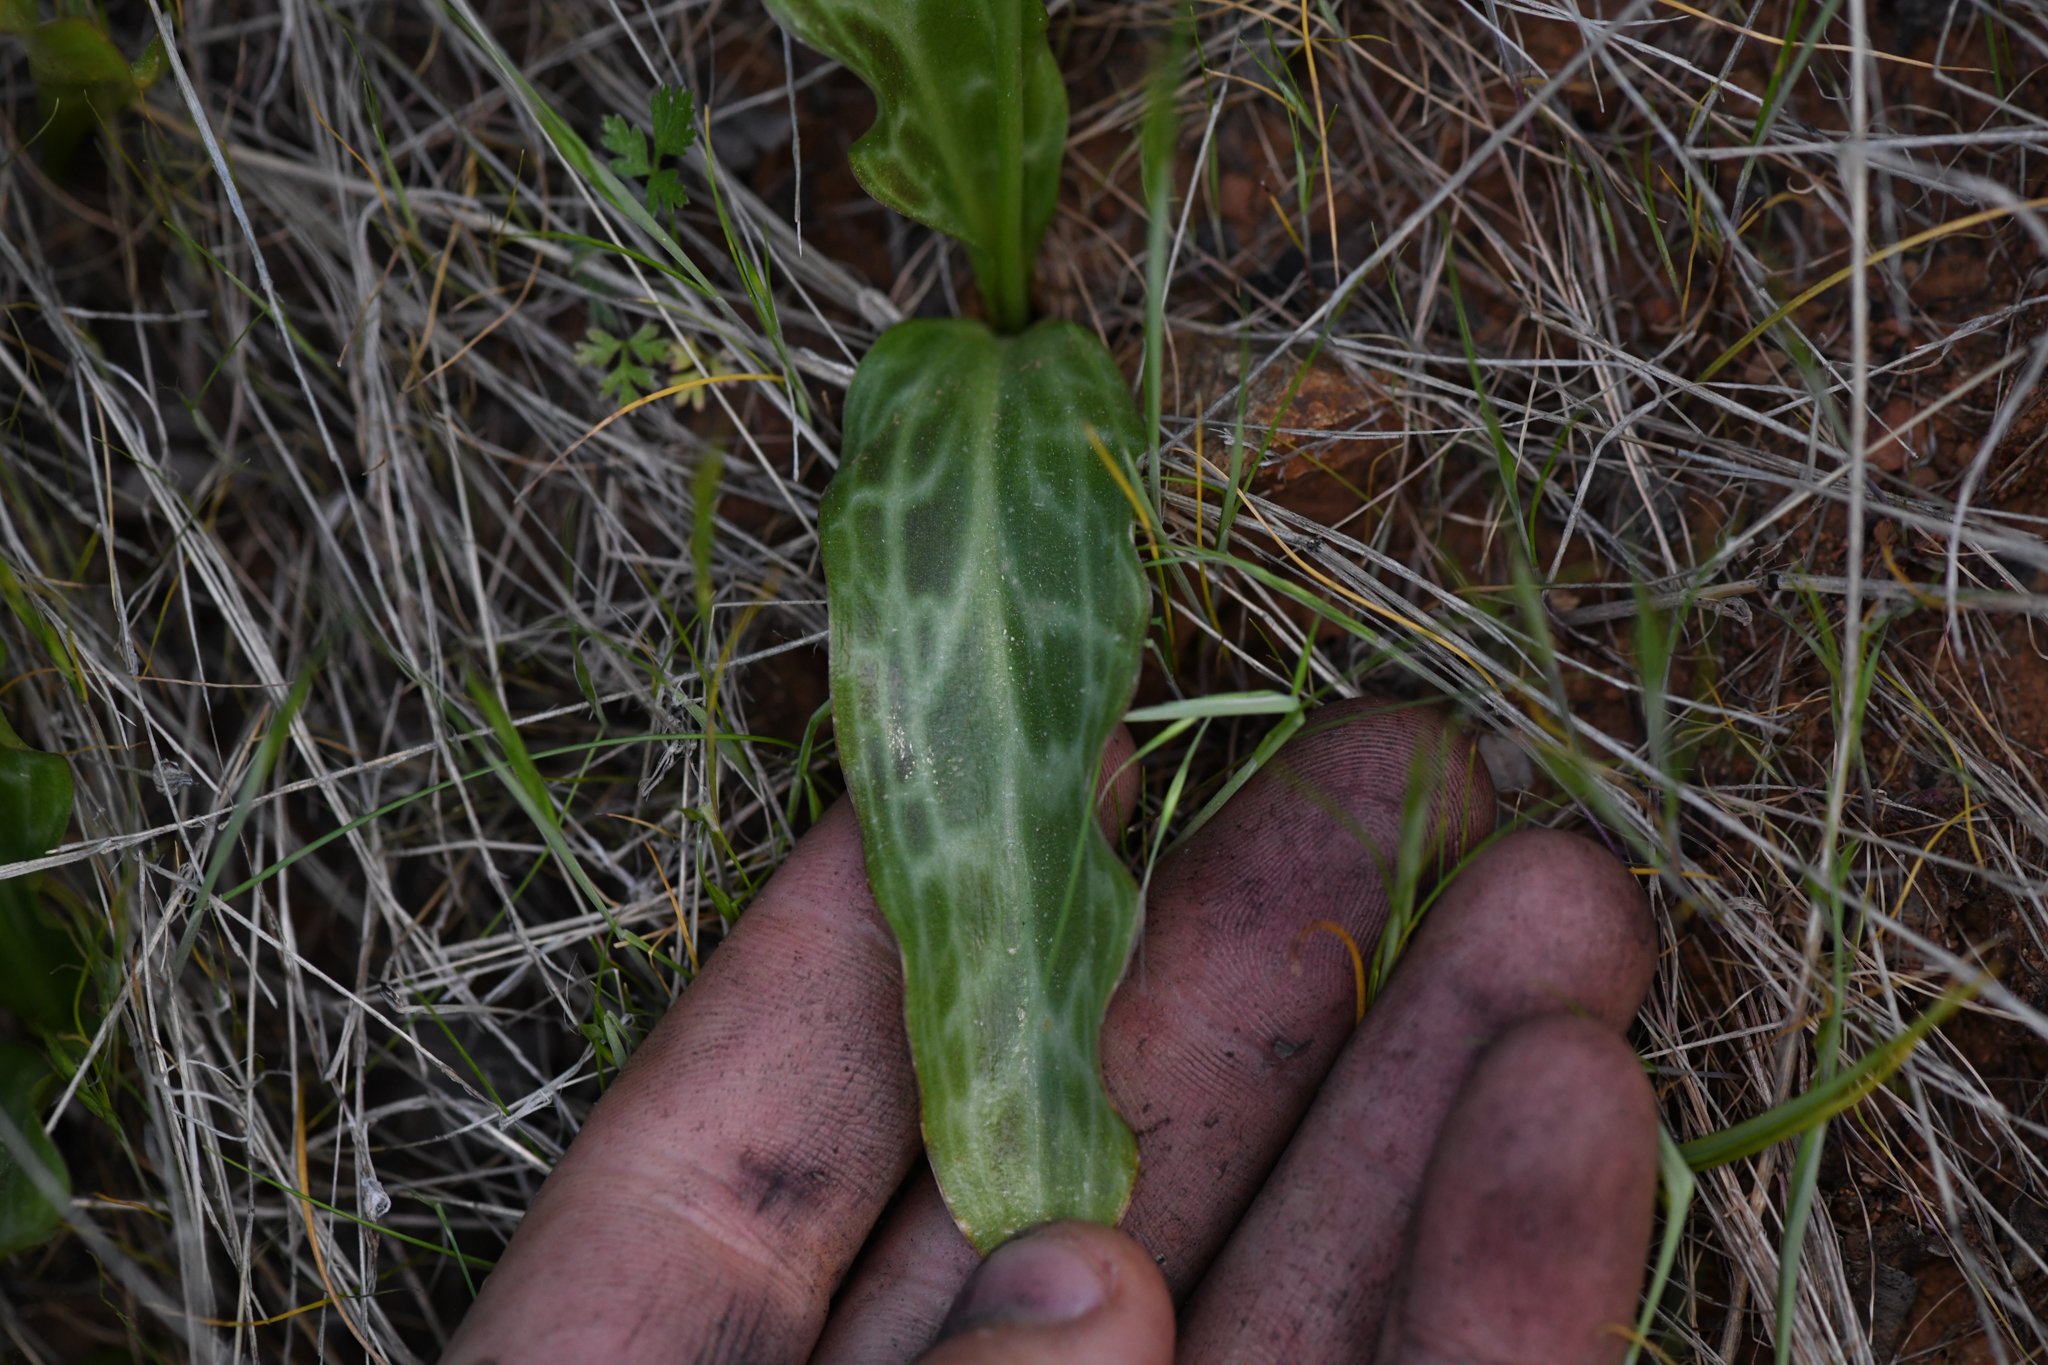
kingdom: Plantae
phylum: Tracheophyta
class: Liliopsida
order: Liliales
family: Liliaceae
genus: Erythronium
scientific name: Erythronium multiscapideum
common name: Sierra foothills fawn-lily
